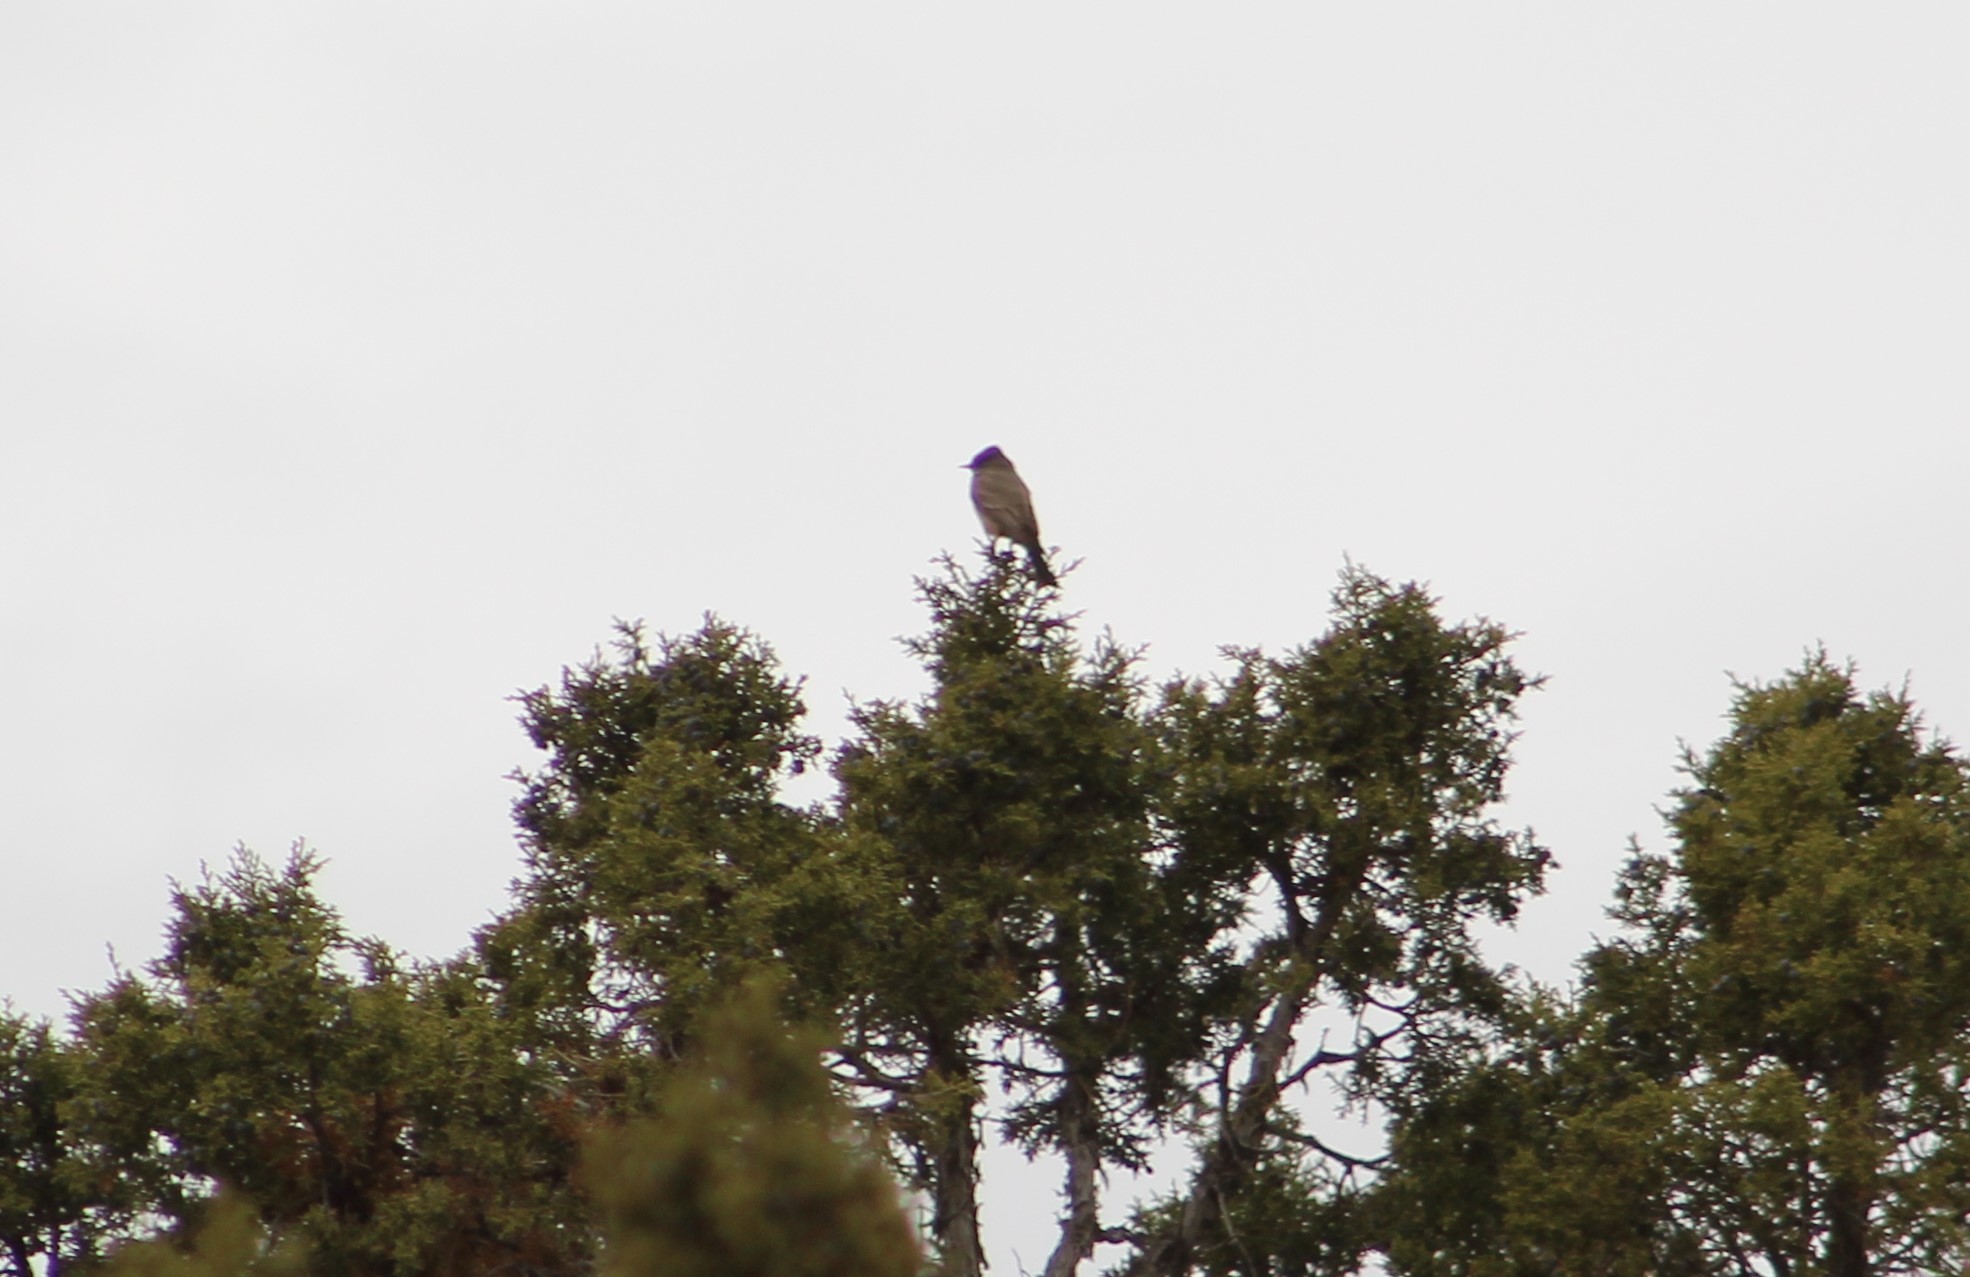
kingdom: Animalia
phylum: Chordata
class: Aves
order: Passeriformes
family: Tyrannidae
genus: Sayornis
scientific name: Sayornis saya
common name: Say's phoebe
